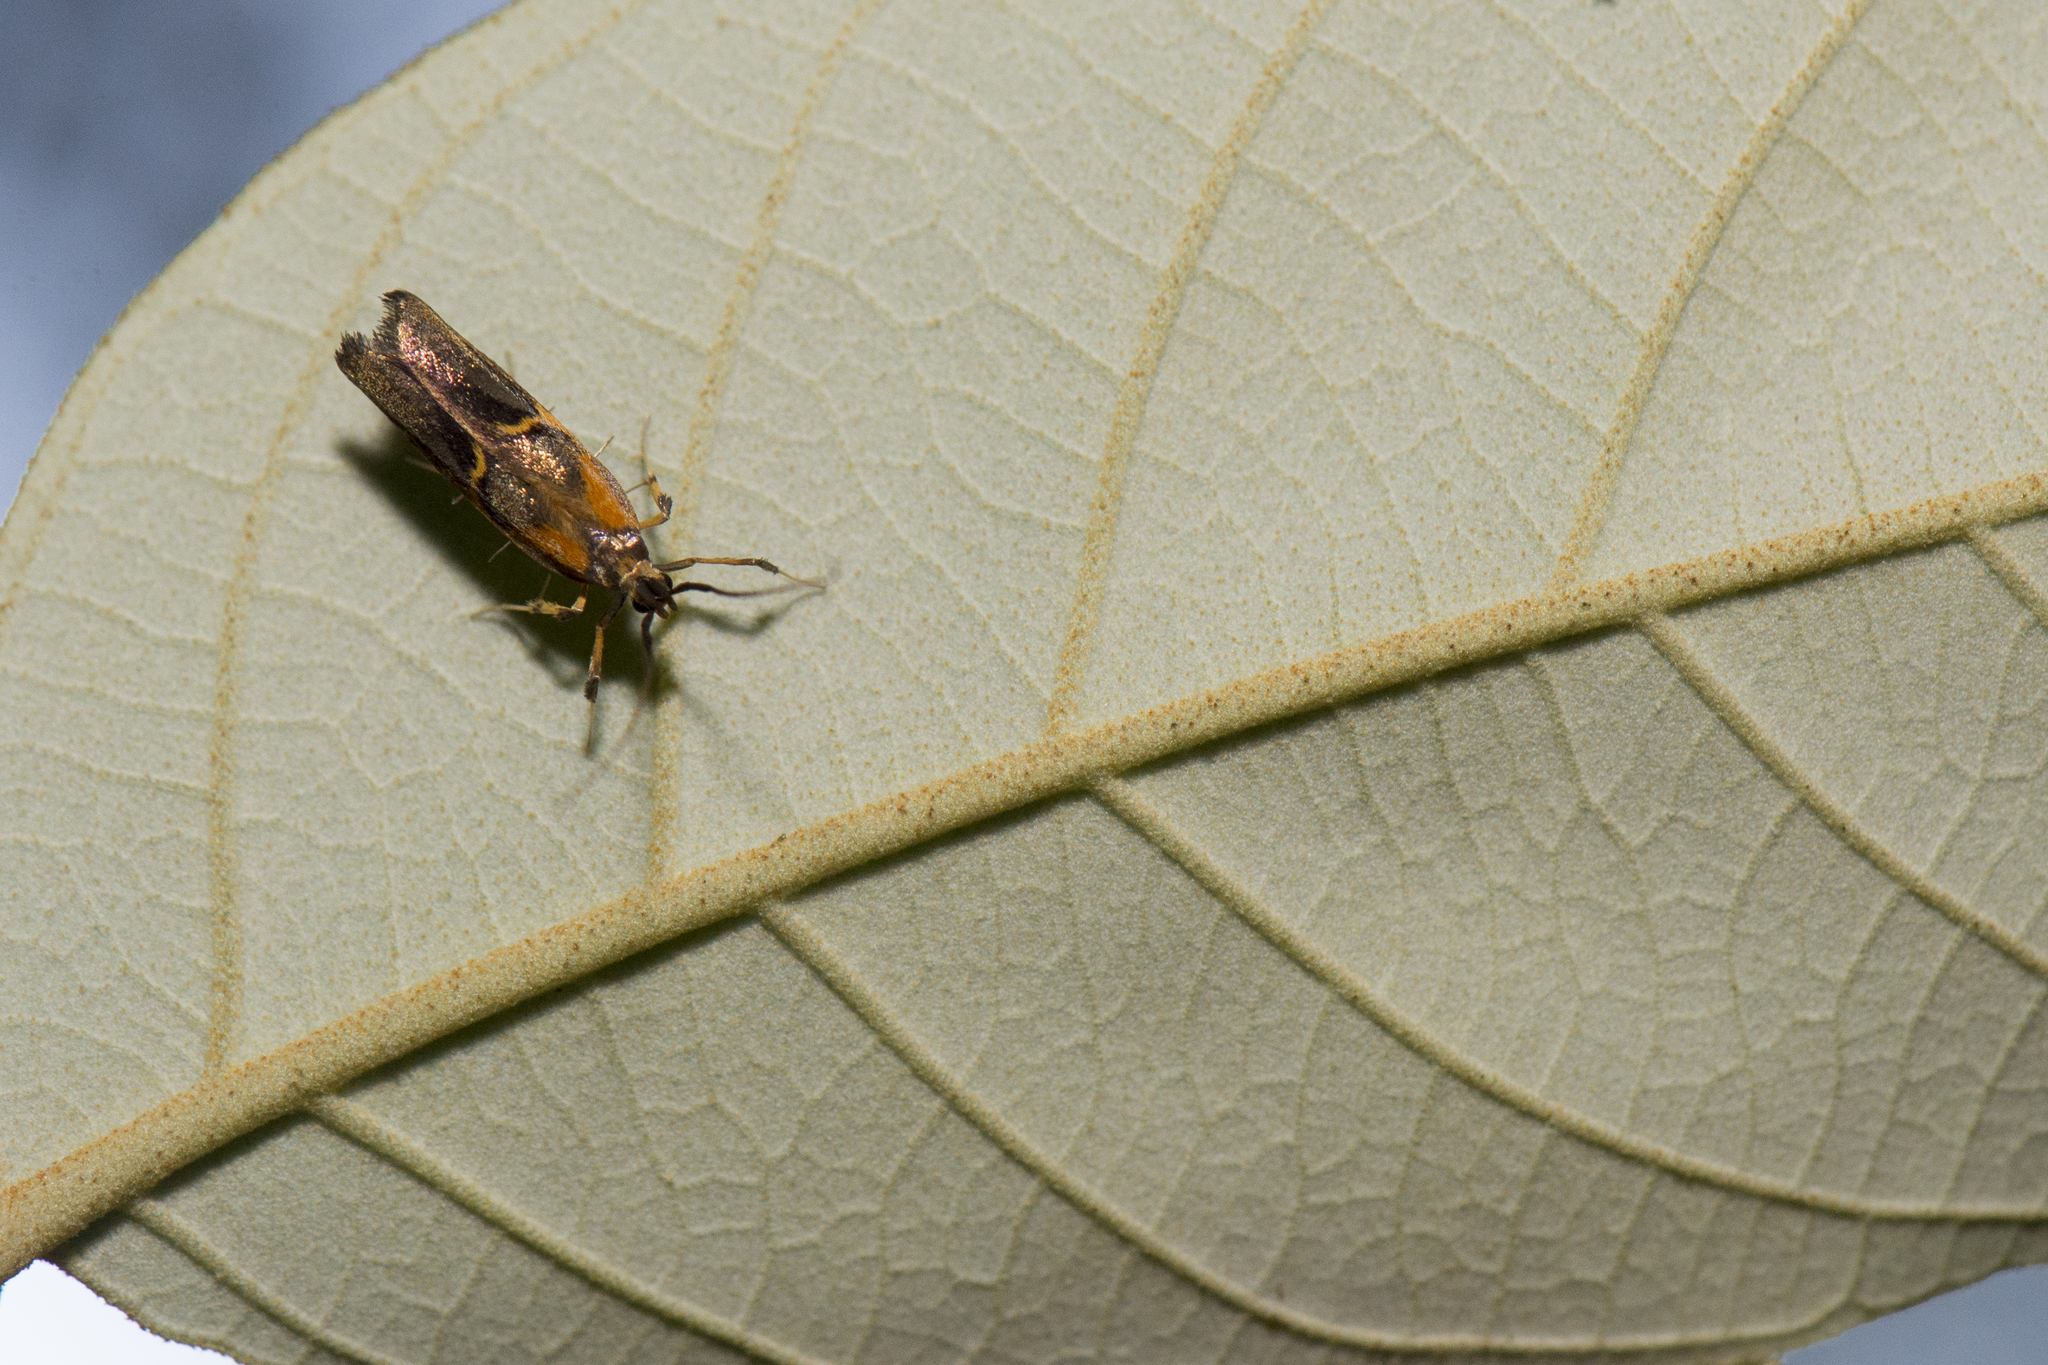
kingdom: Animalia
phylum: Arthropoda
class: Insecta
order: Lepidoptera
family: Lecithoceridae
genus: Tisis
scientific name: Tisis mesozosta
